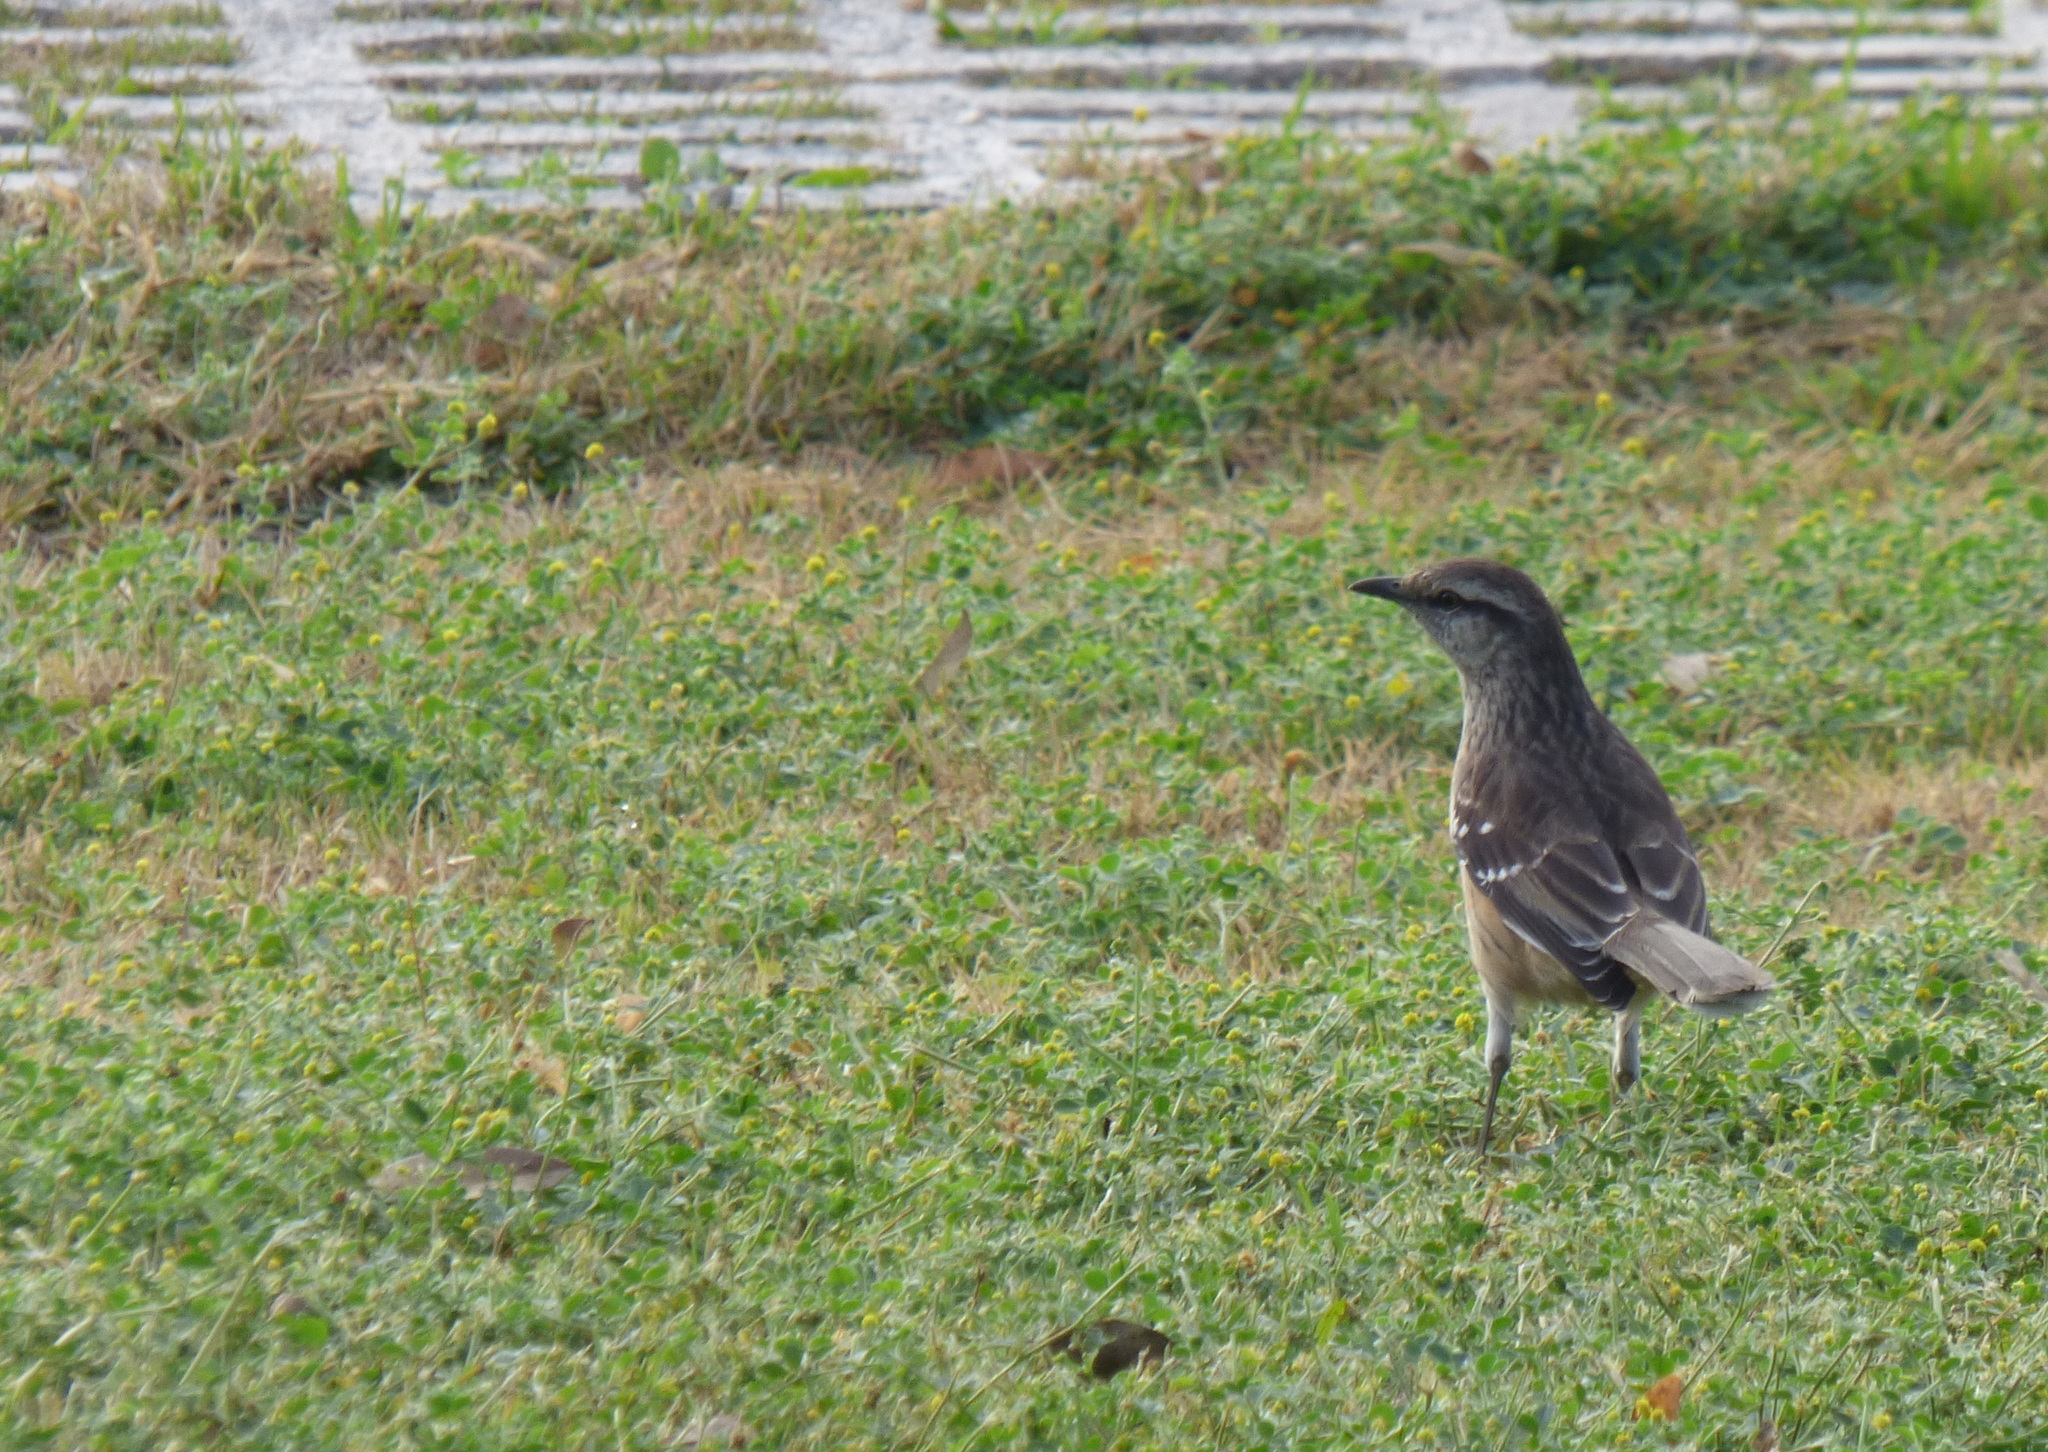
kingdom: Animalia
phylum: Chordata
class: Aves
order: Passeriformes
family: Mimidae
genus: Mimus
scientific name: Mimus saturninus
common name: Chalk-browed mockingbird
